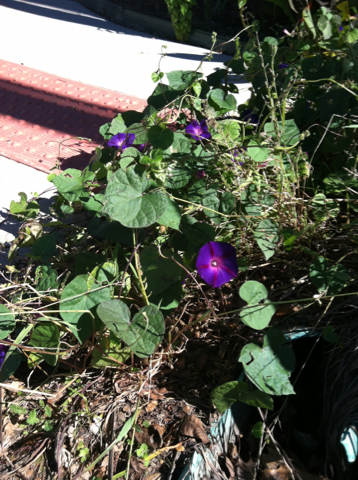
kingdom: Plantae
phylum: Tracheophyta
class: Magnoliopsida
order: Solanales
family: Convolvulaceae
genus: Ipomoea
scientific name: Ipomoea purpurea
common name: Common morning-glory
